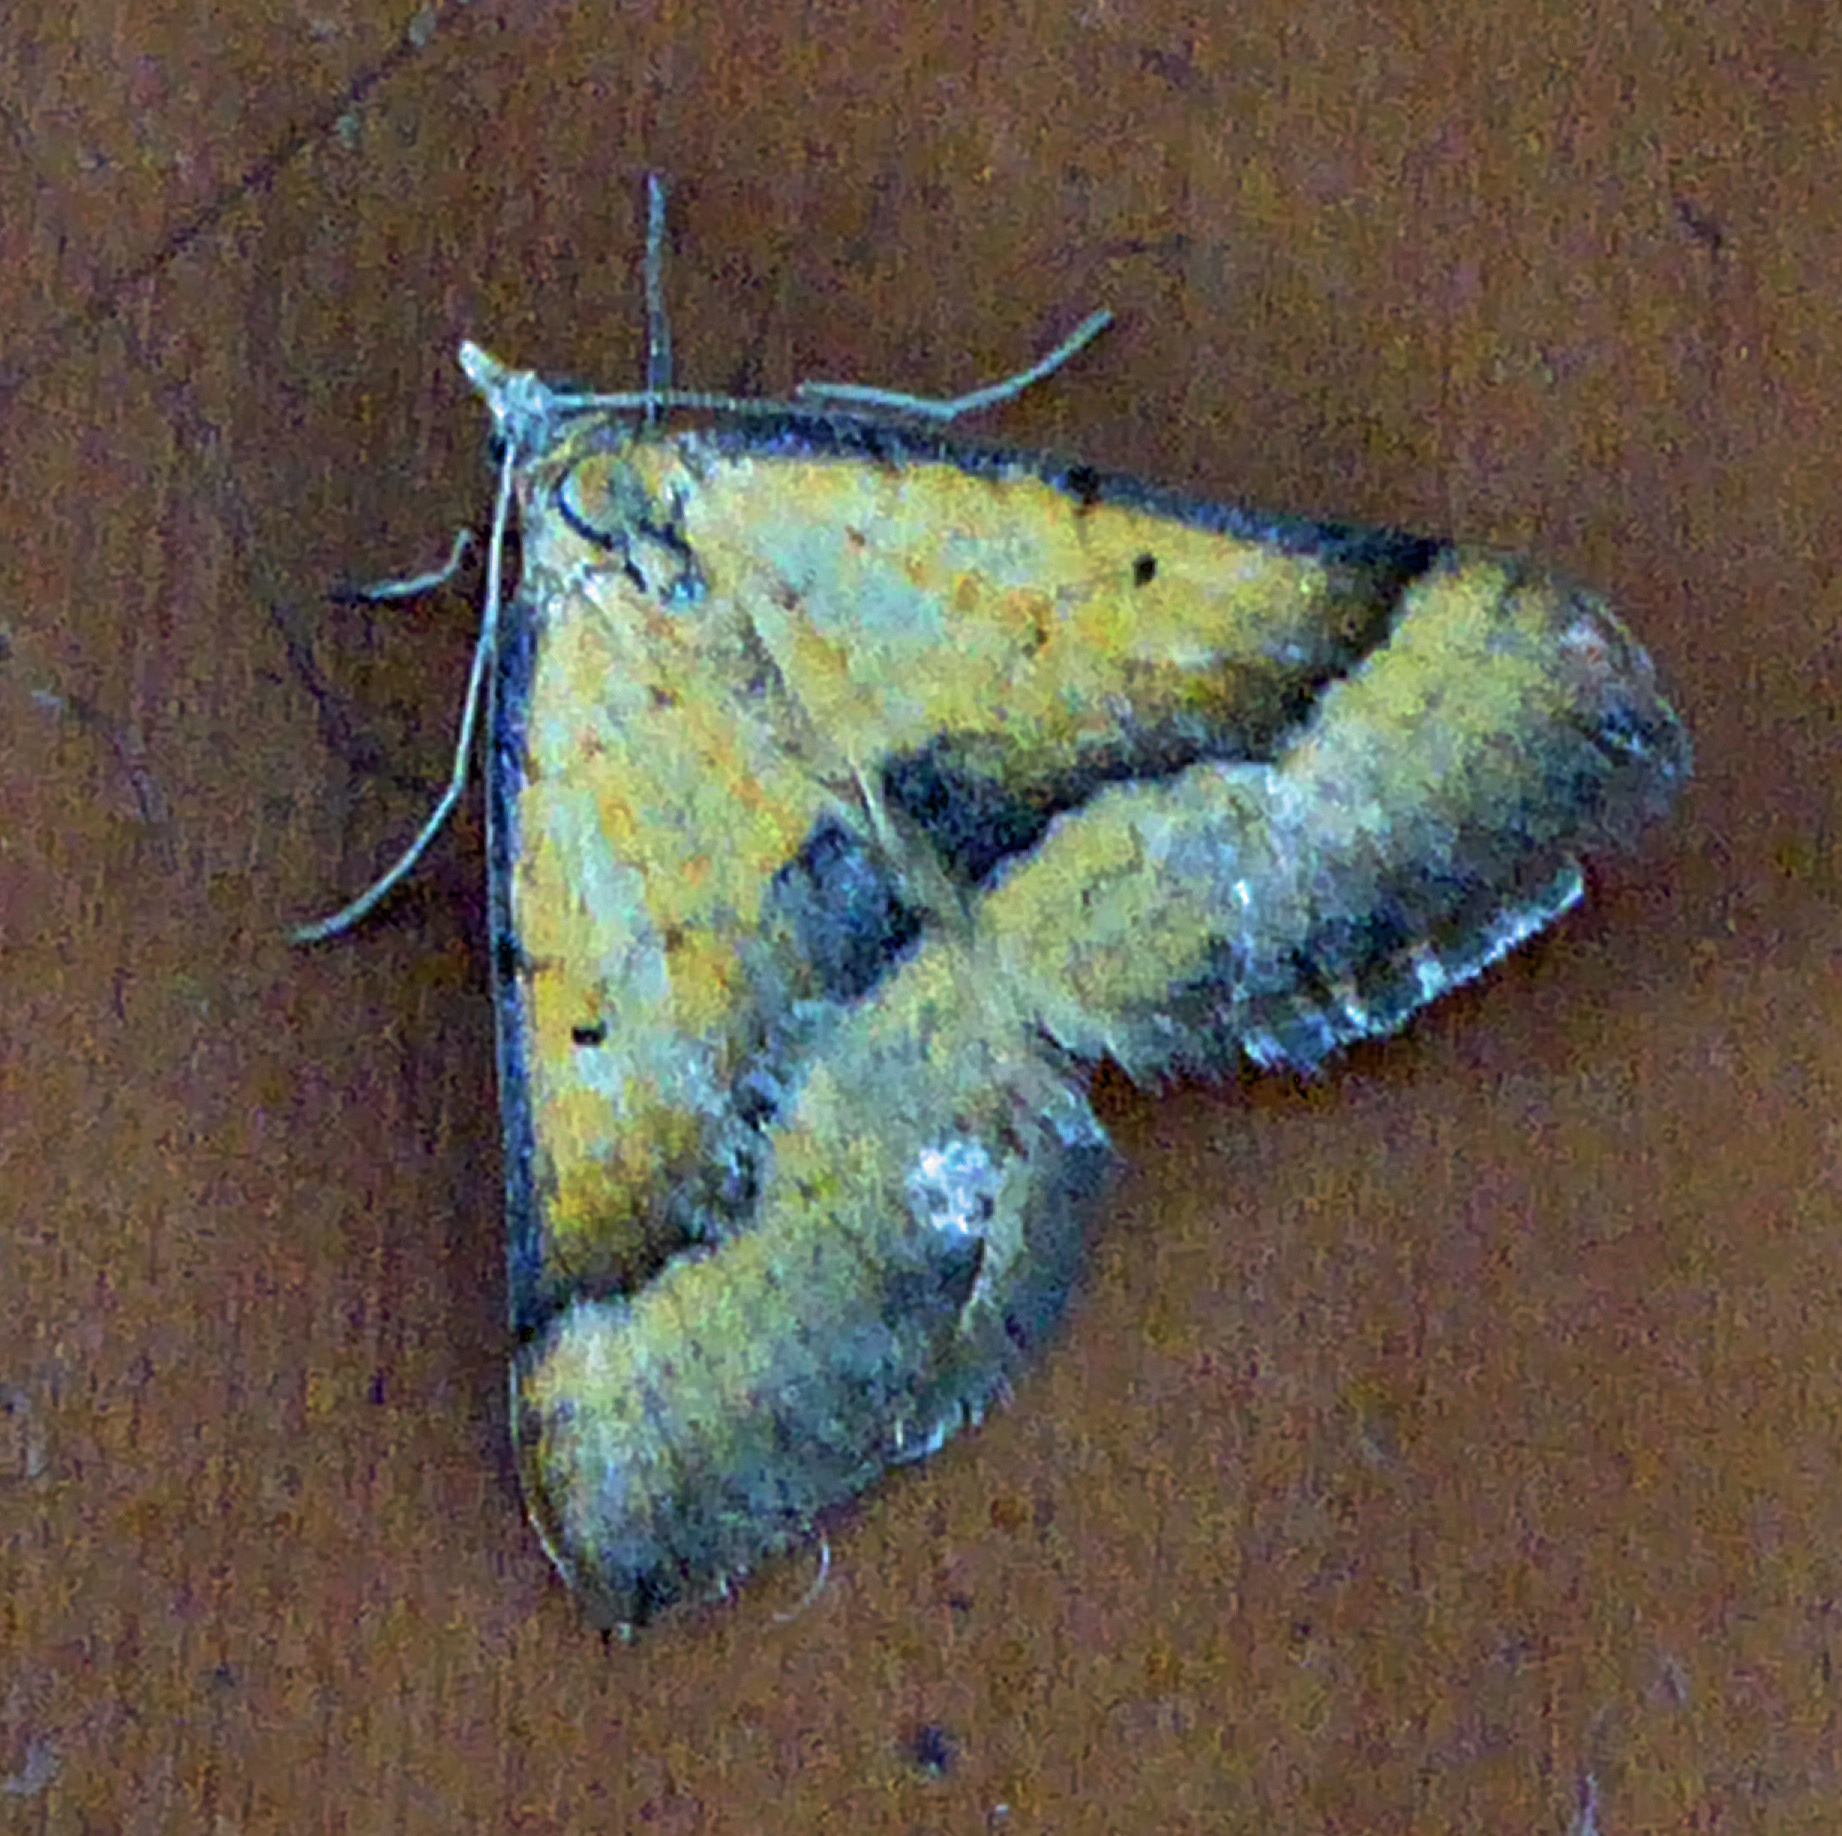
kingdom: Animalia
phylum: Arthropoda
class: Insecta
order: Lepidoptera
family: Geometridae
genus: Anachloris
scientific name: Anachloris subochraria
